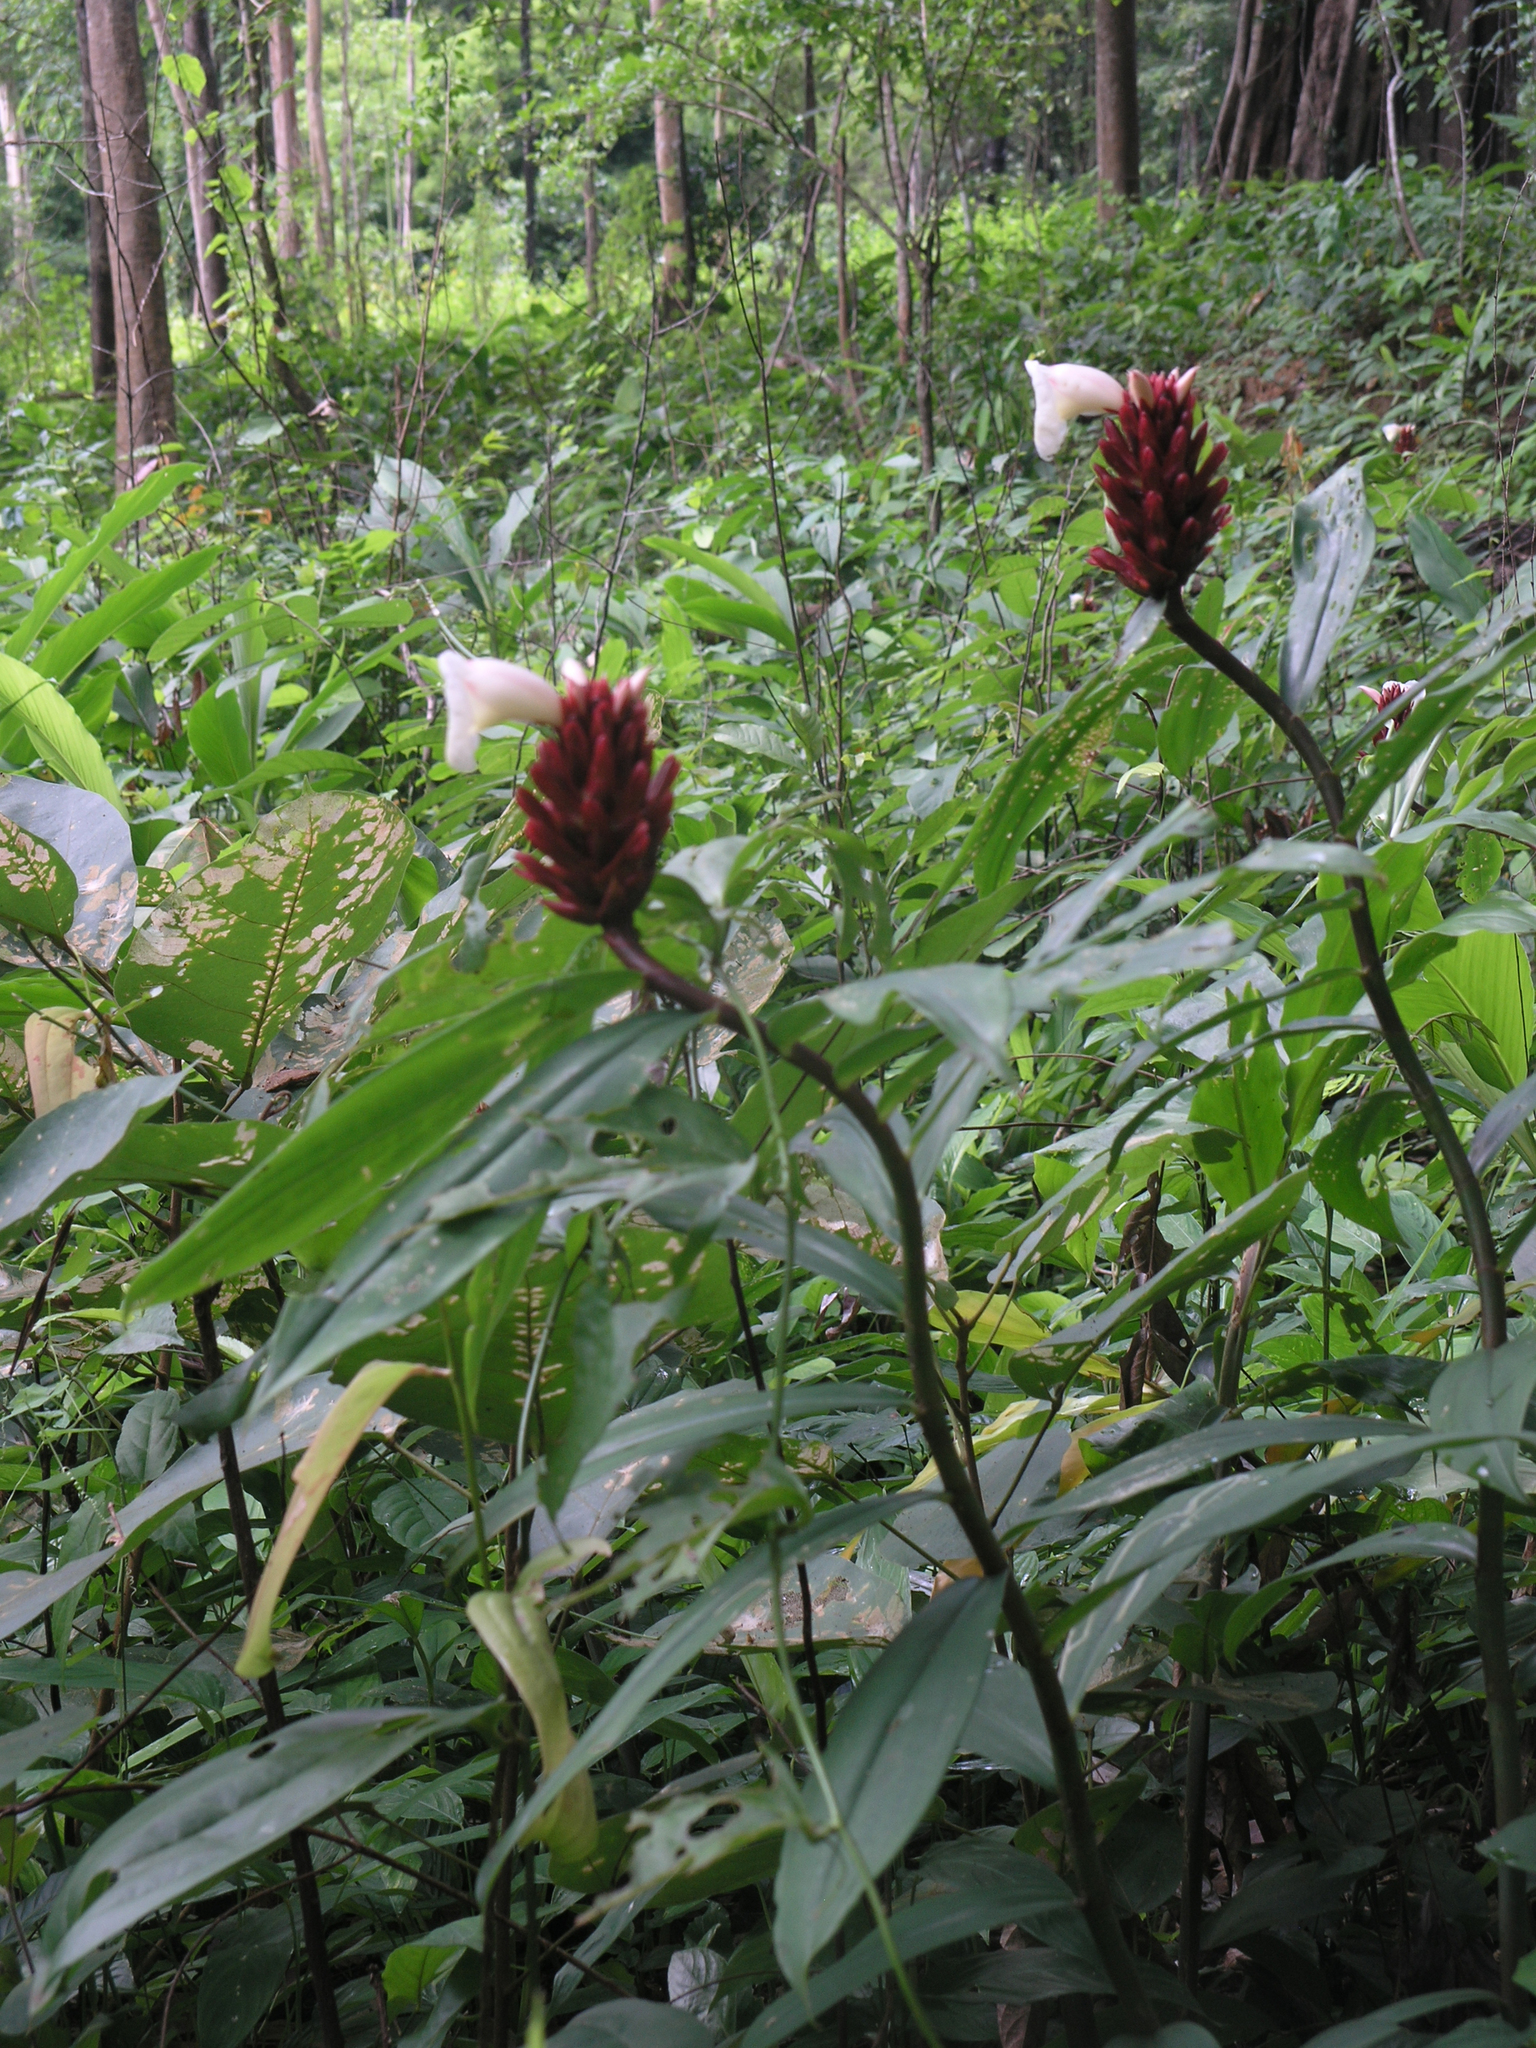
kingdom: Plantae
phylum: Tracheophyta
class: Liliopsida
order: Zingiberales
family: Costaceae
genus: Hellenia
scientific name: Hellenia speciosa
